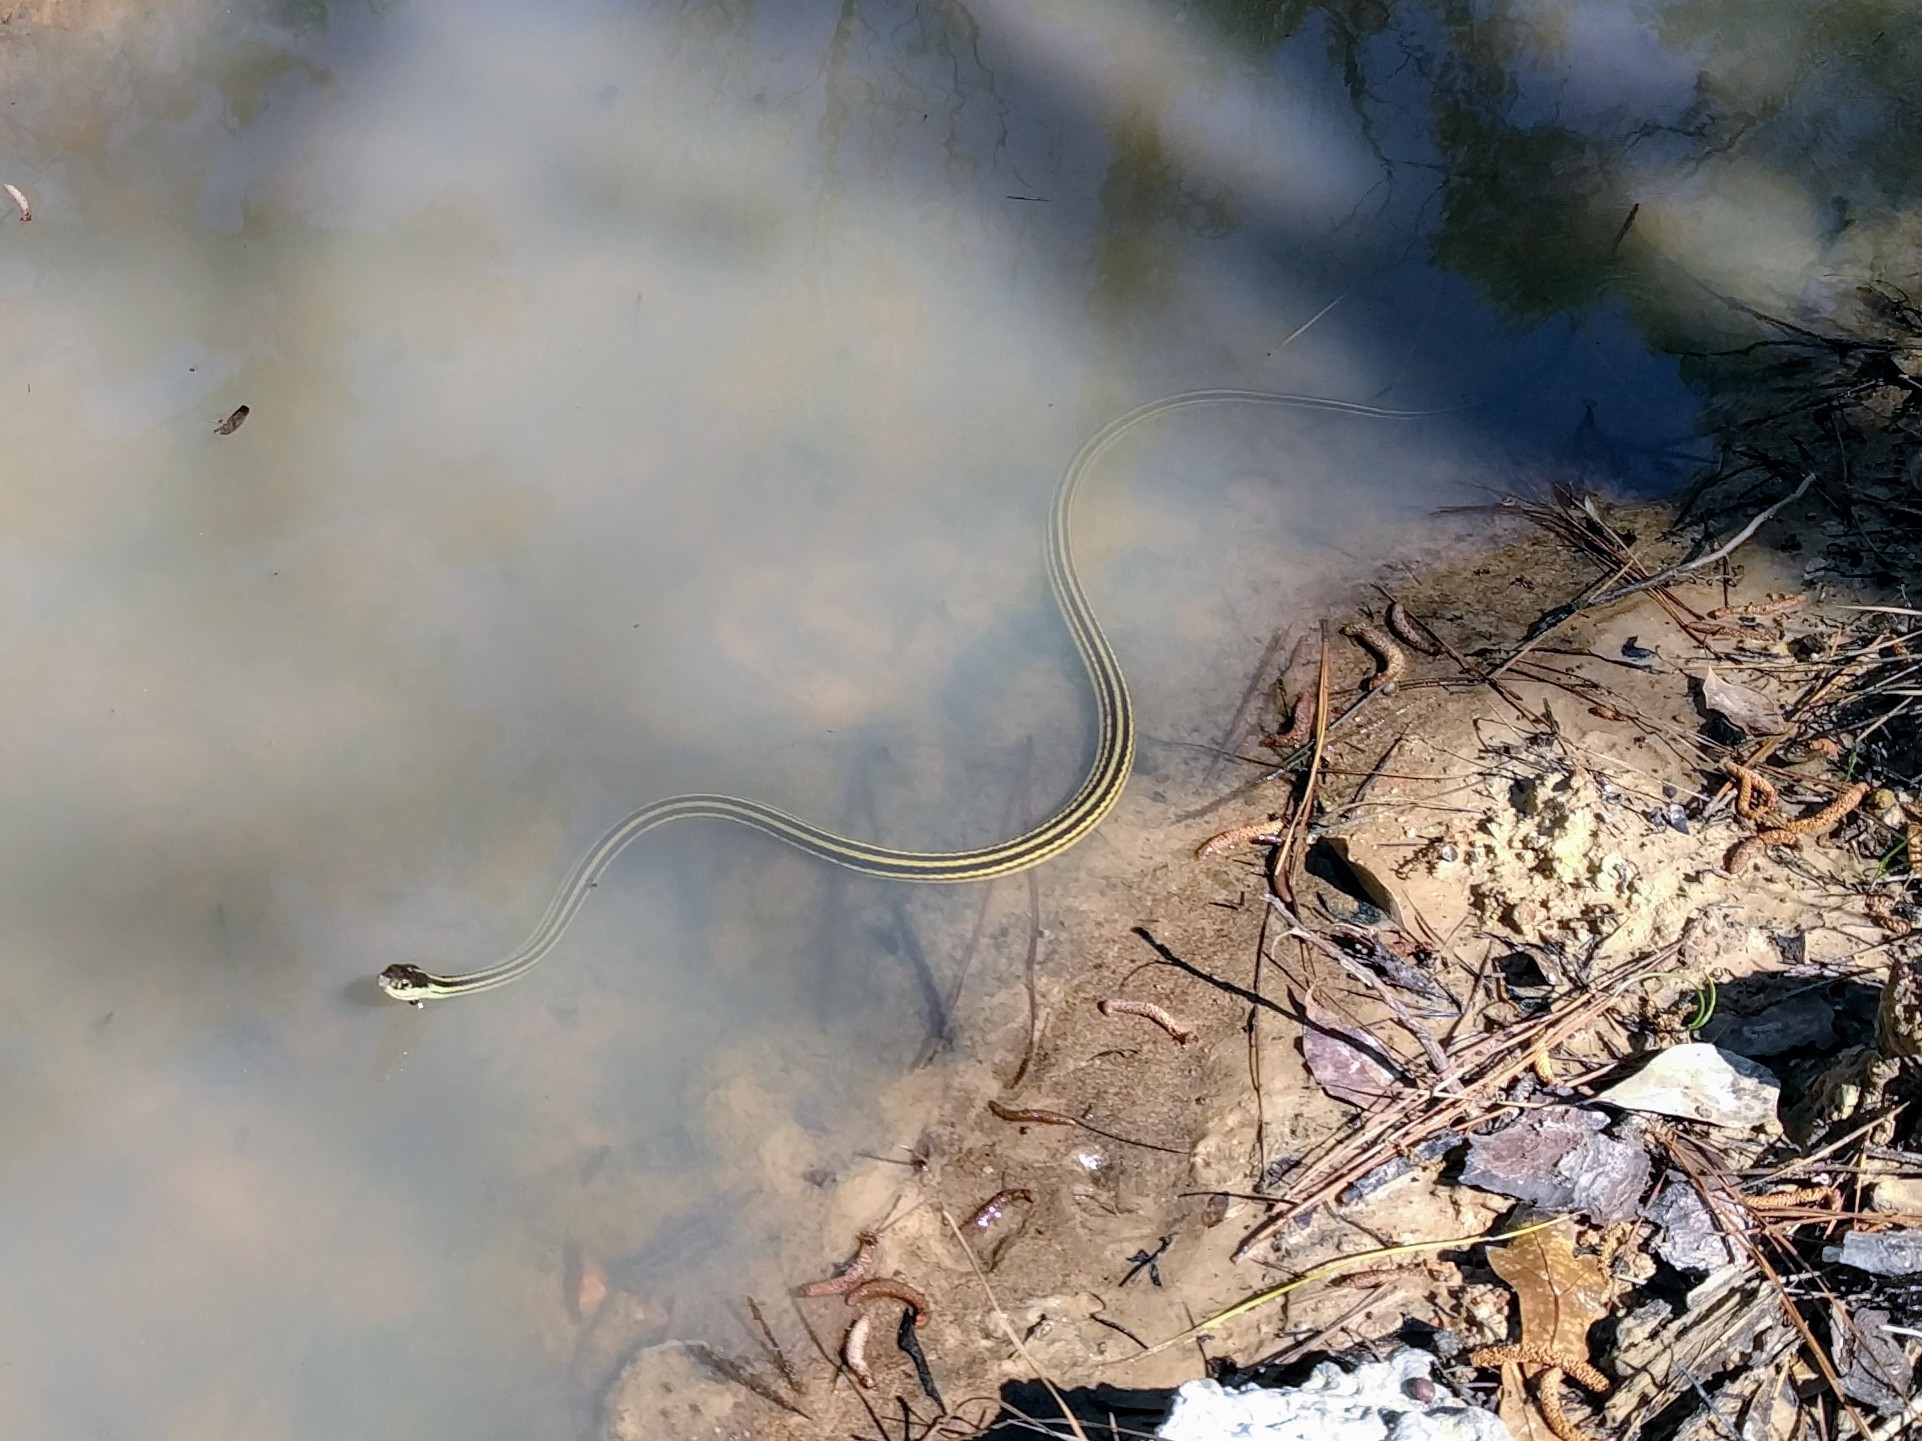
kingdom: Animalia
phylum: Chordata
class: Squamata
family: Colubridae
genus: Thamnophis
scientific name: Thamnophis proximus
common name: Western ribbon snake
